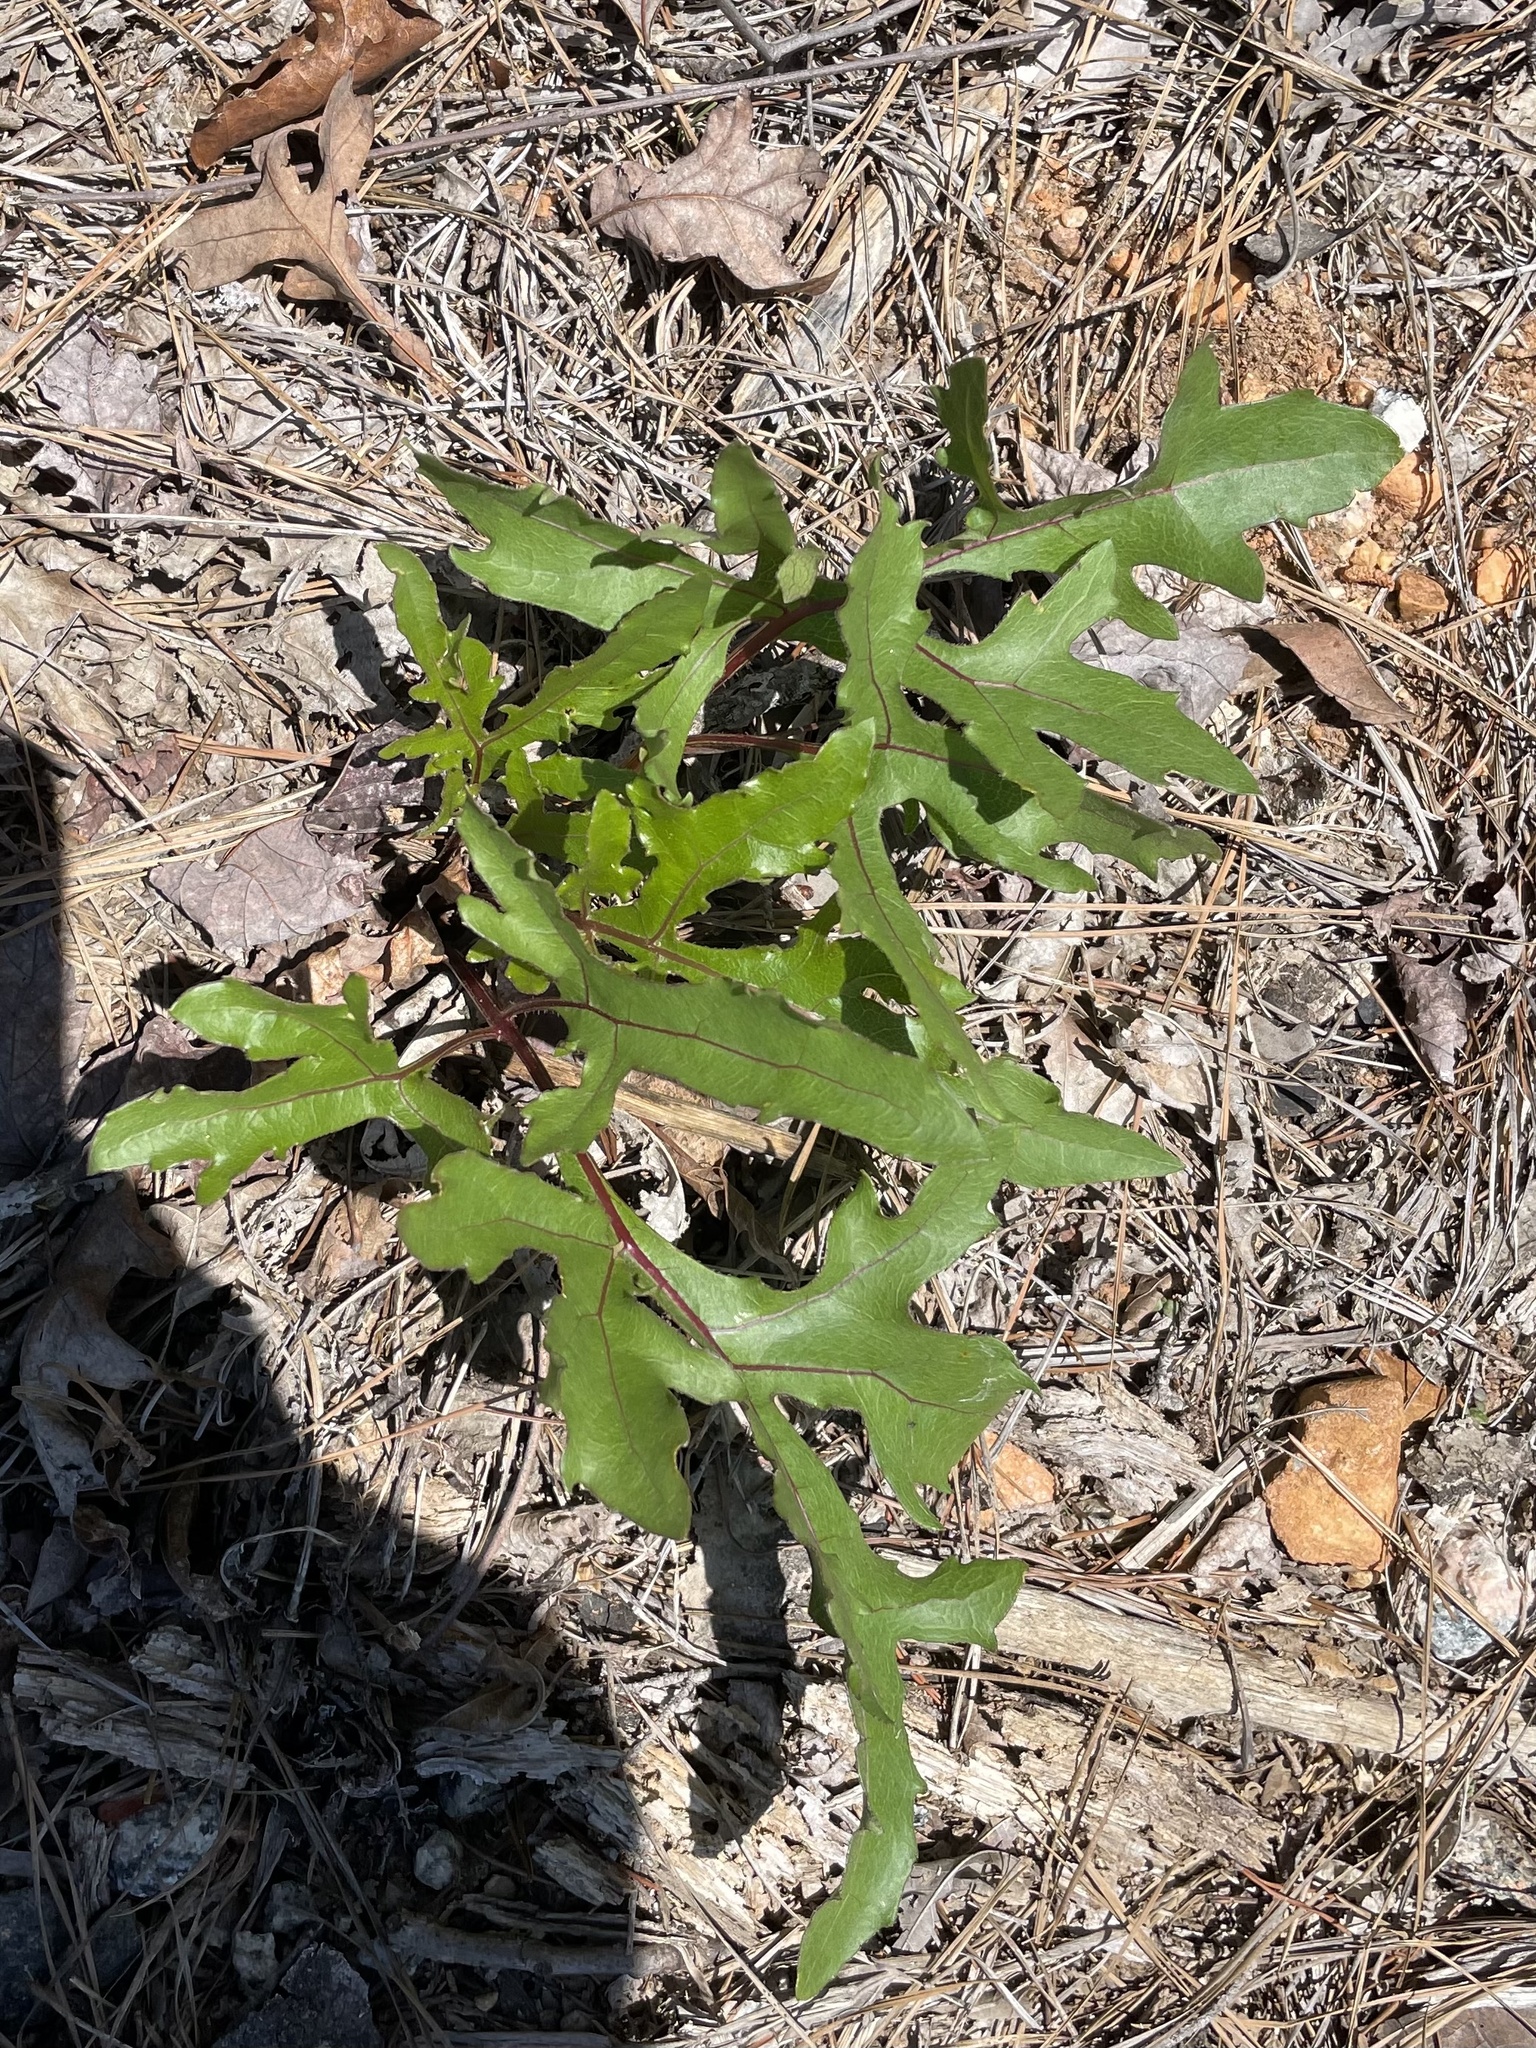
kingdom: Plantae
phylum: Tracheophyta
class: Magnoliopsida
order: Asterales
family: Asteraceae
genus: Silphium
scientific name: Silphium compositum
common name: Lesser basal-leaf rosinweed
